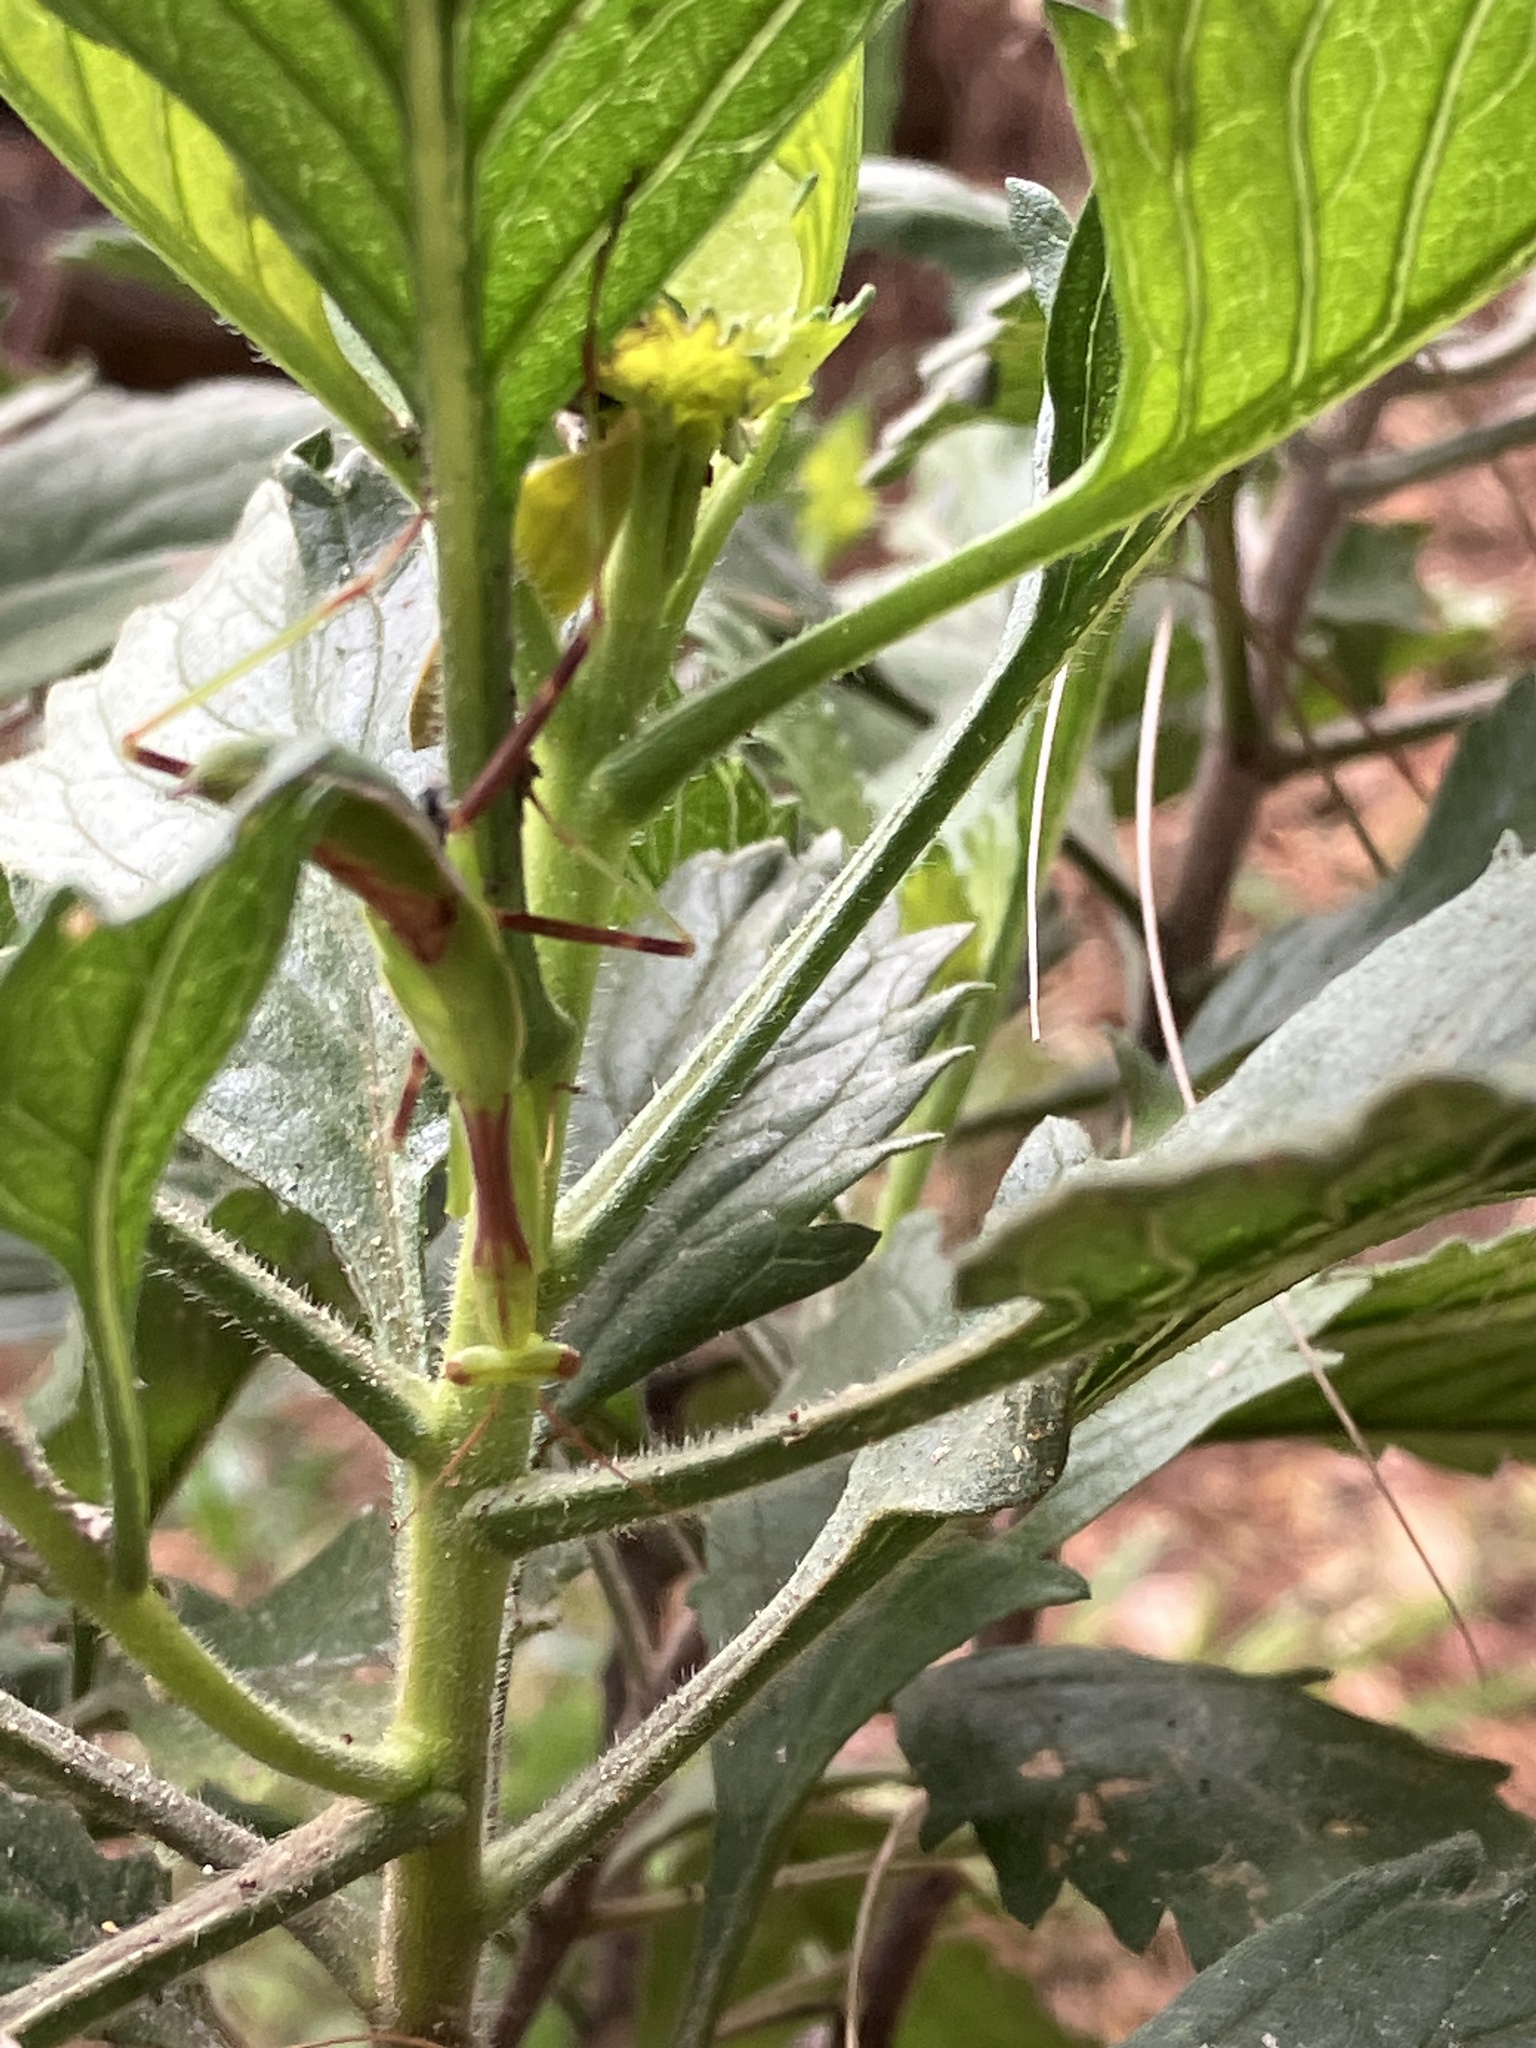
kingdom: Animalia
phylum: Arthropoda
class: Insecta
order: Mantodea
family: Miomantidae
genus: Miomantis
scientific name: Miomantis caffra
